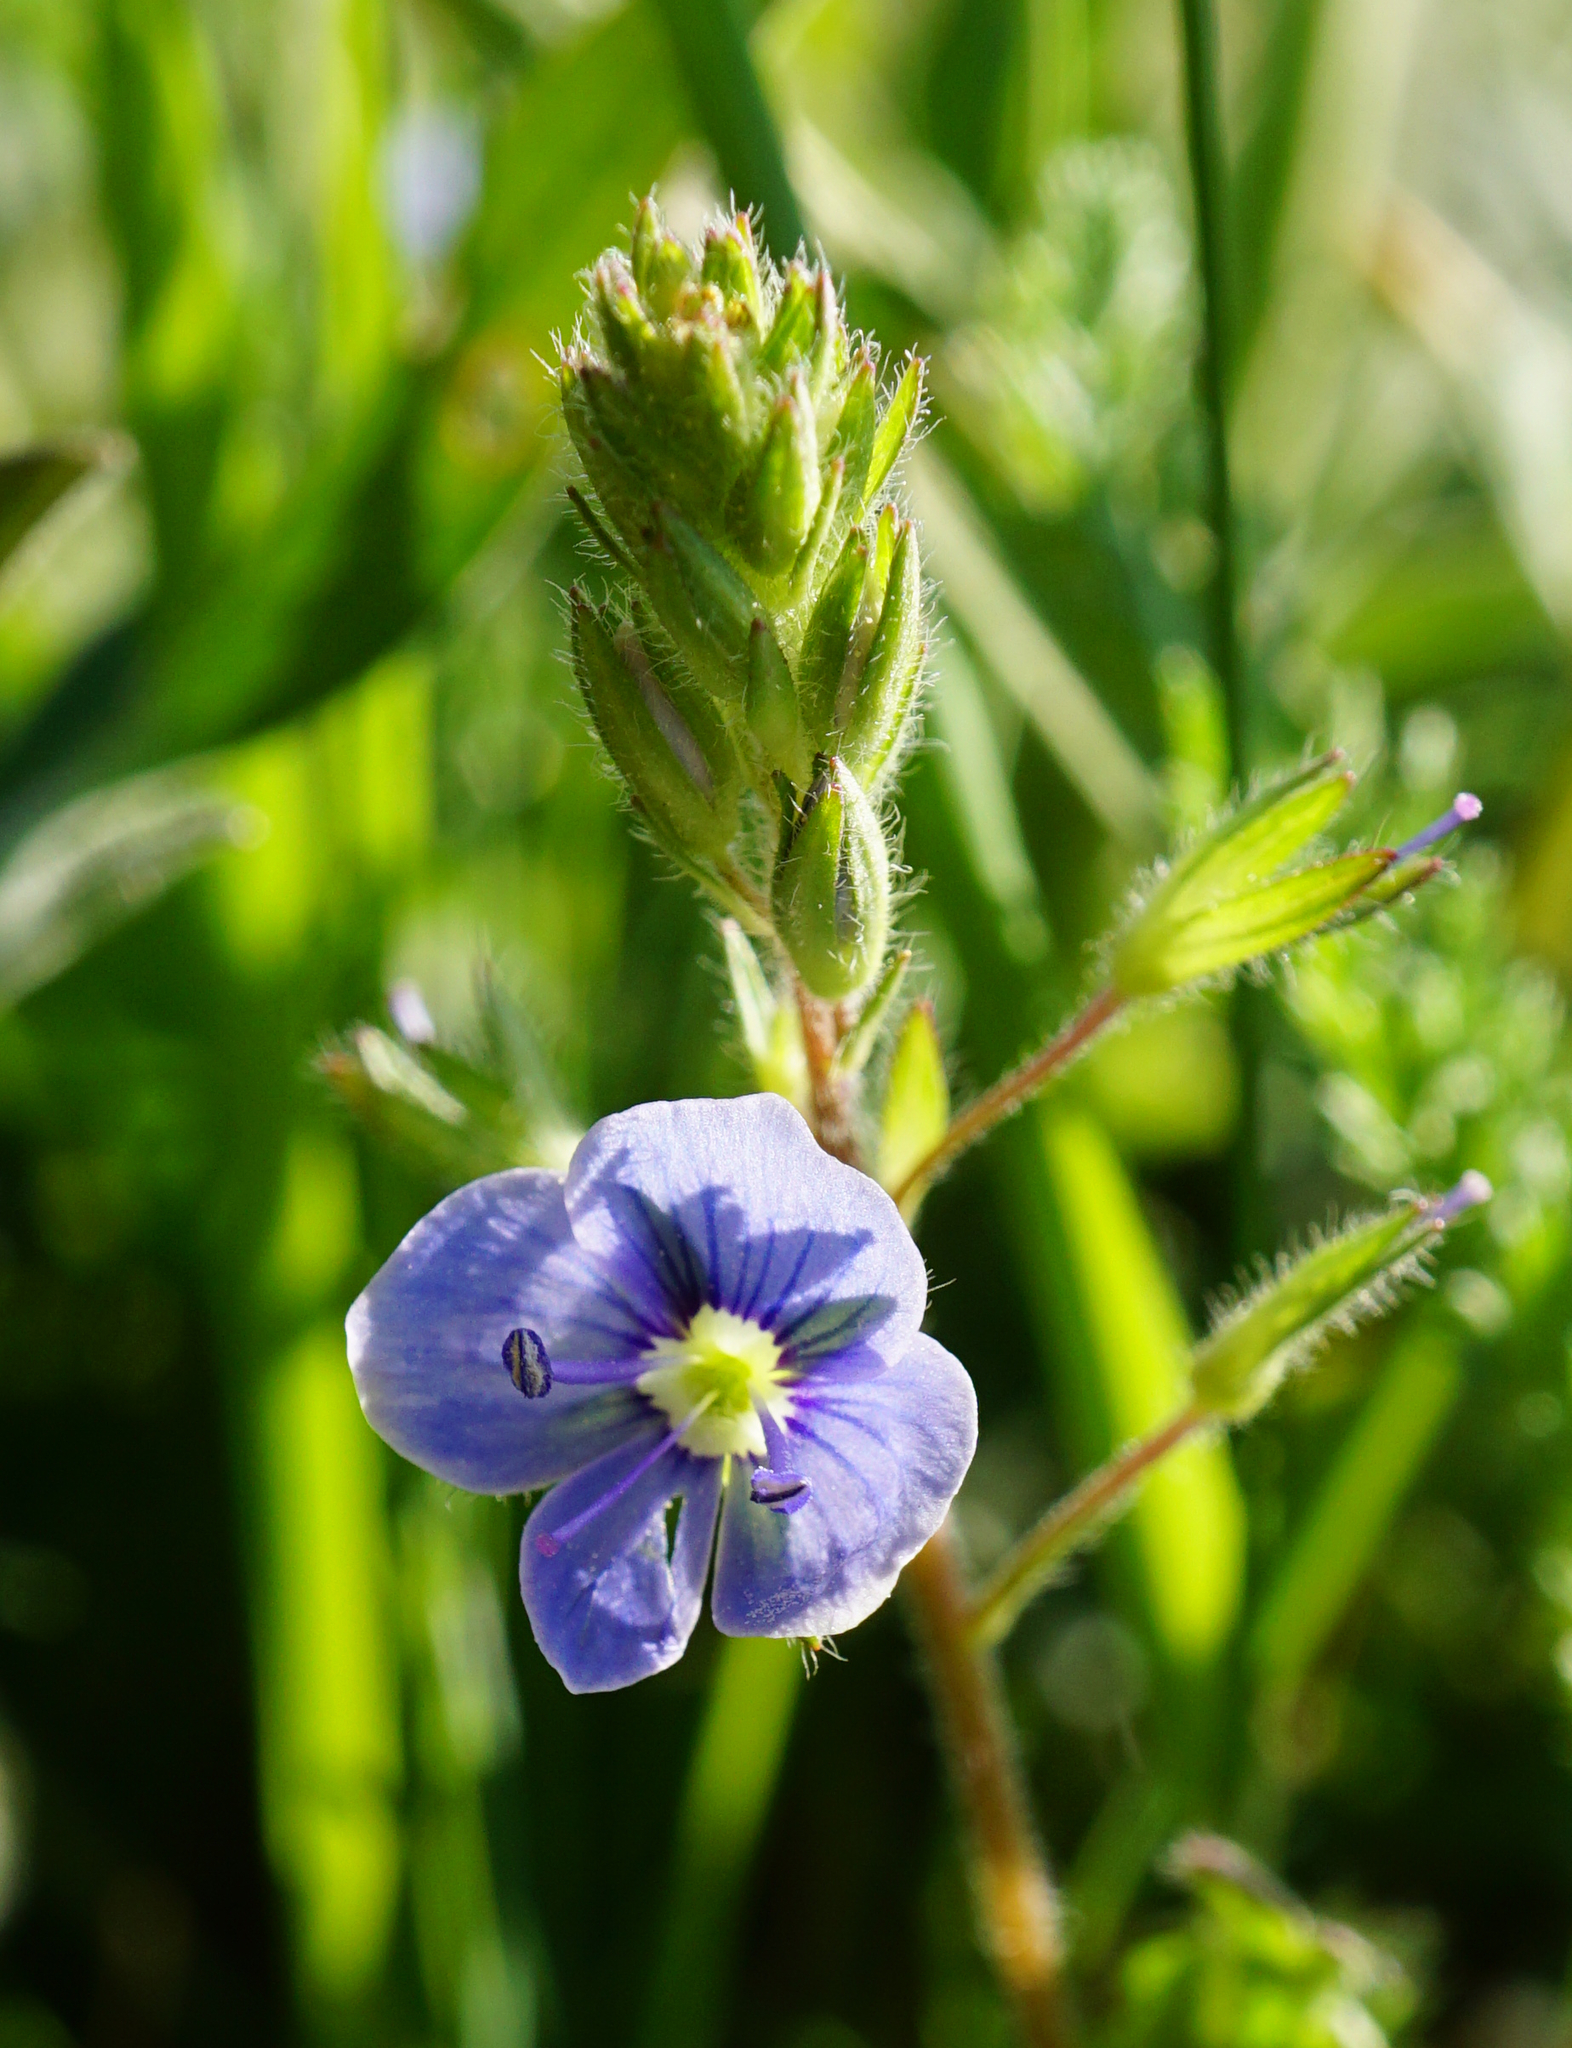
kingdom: Plantae
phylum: Tracheophyta
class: Magnoliopsida
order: Lamiales
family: Plantaginaceae
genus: Veronica
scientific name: Veronica chamaedrys
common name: Germander speedwell
